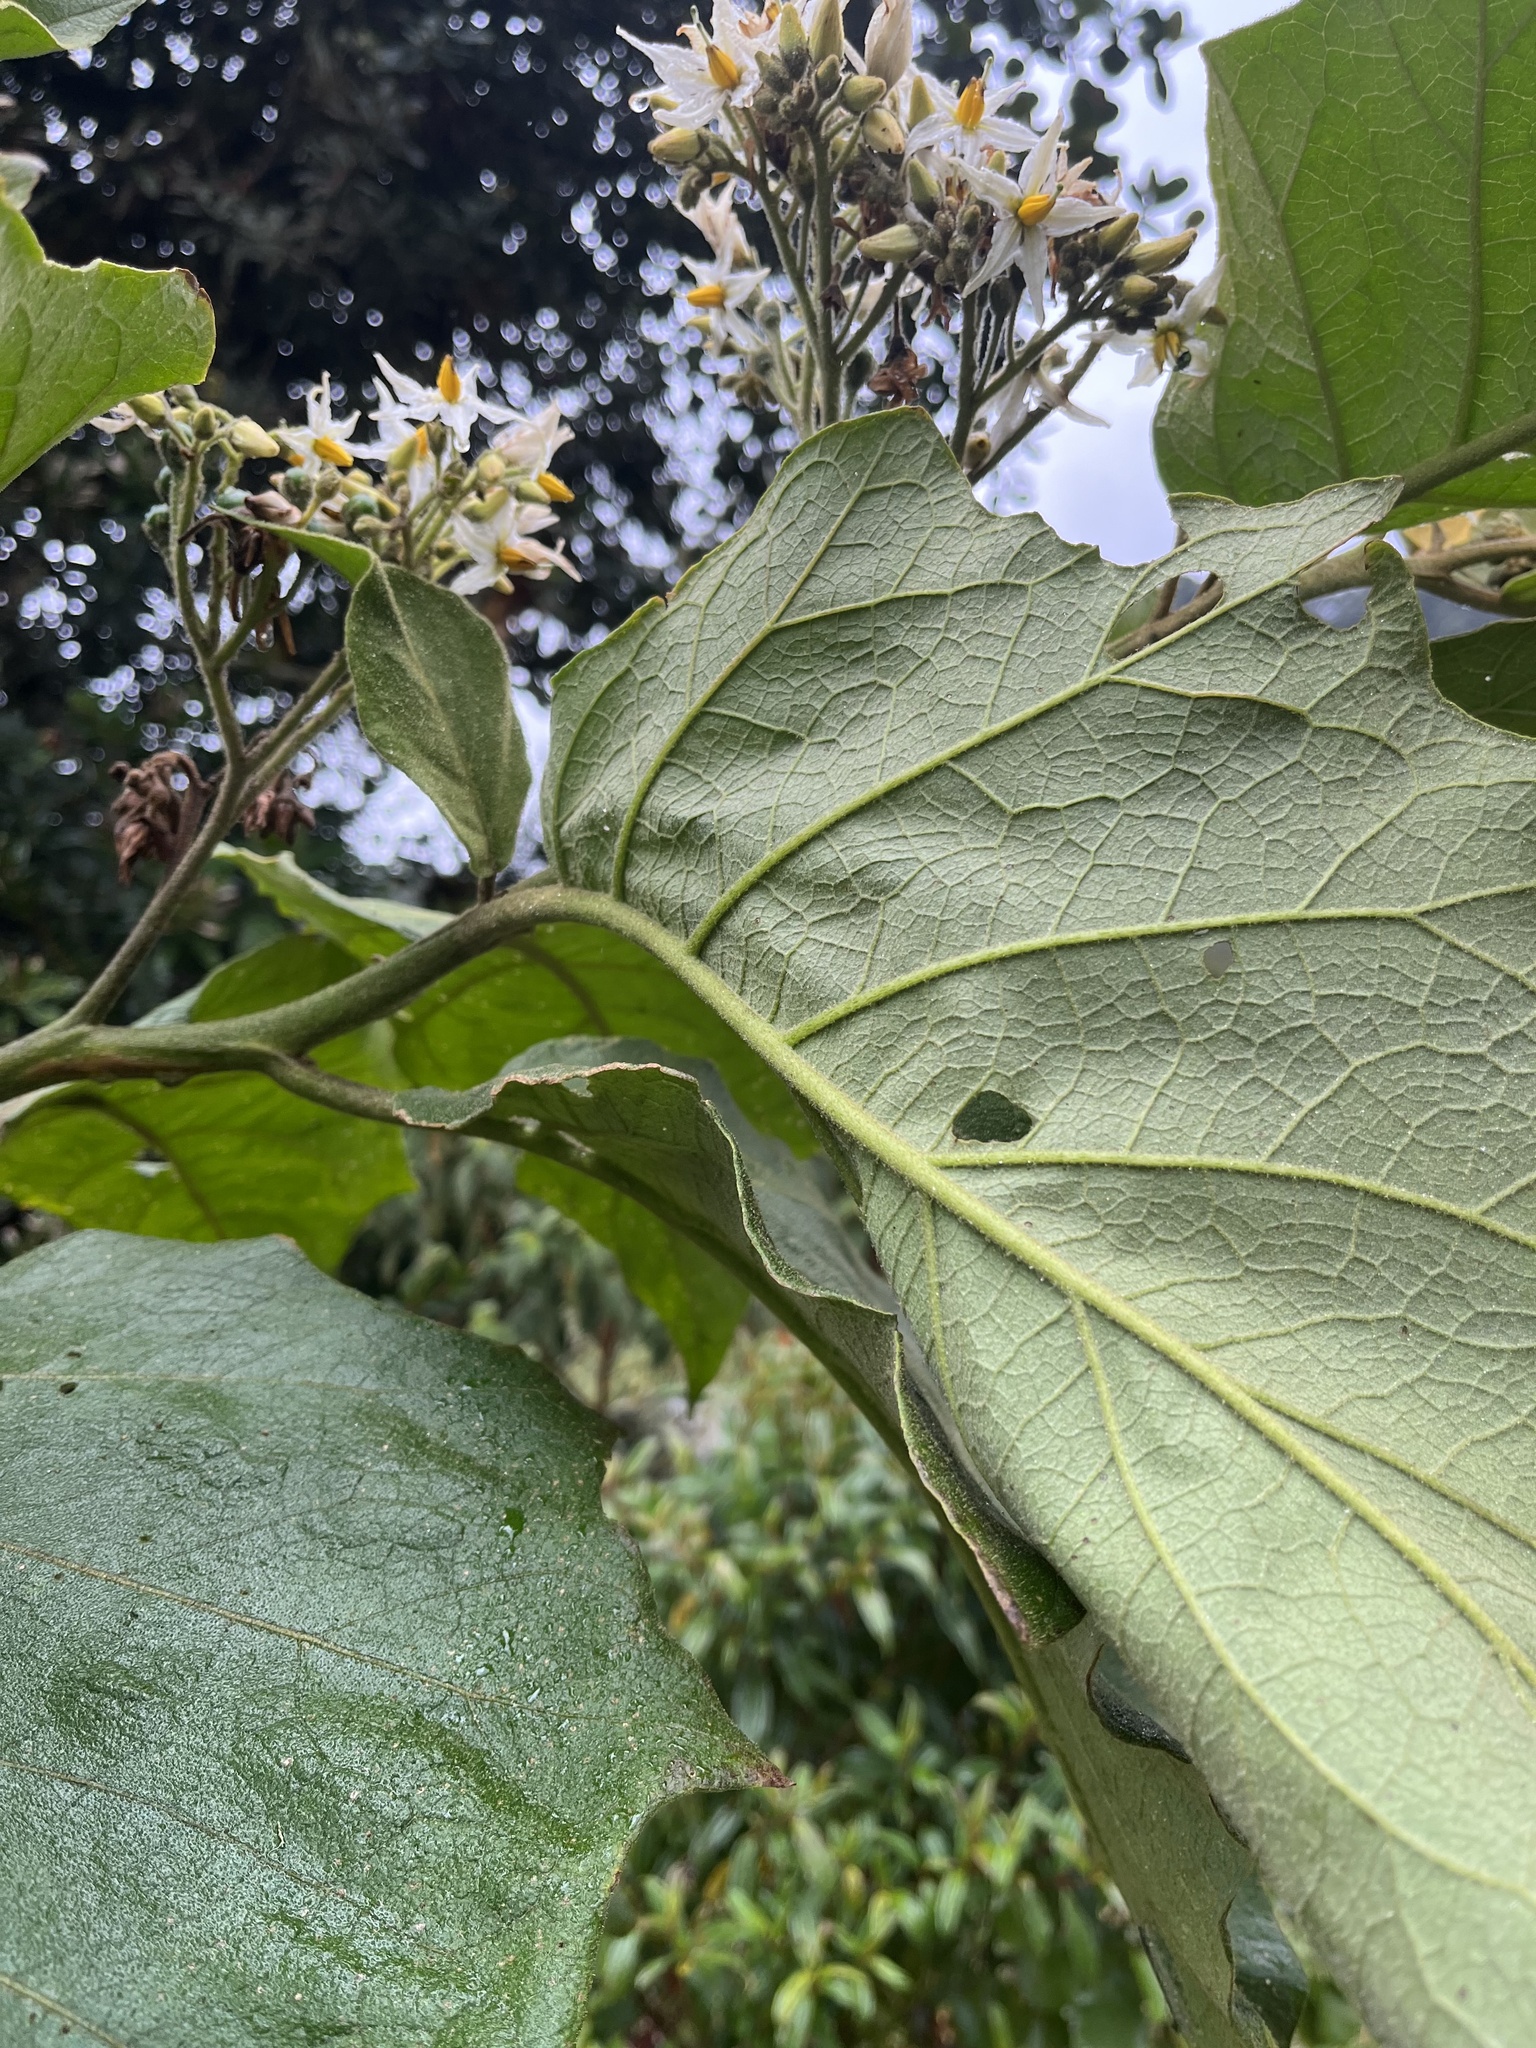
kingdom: Plantae
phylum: Tracheophyta
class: Magnoliopsida
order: Solanales
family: Solanaceae
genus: Solanum
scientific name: Solanum asperolanatum
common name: Devil's-fig
